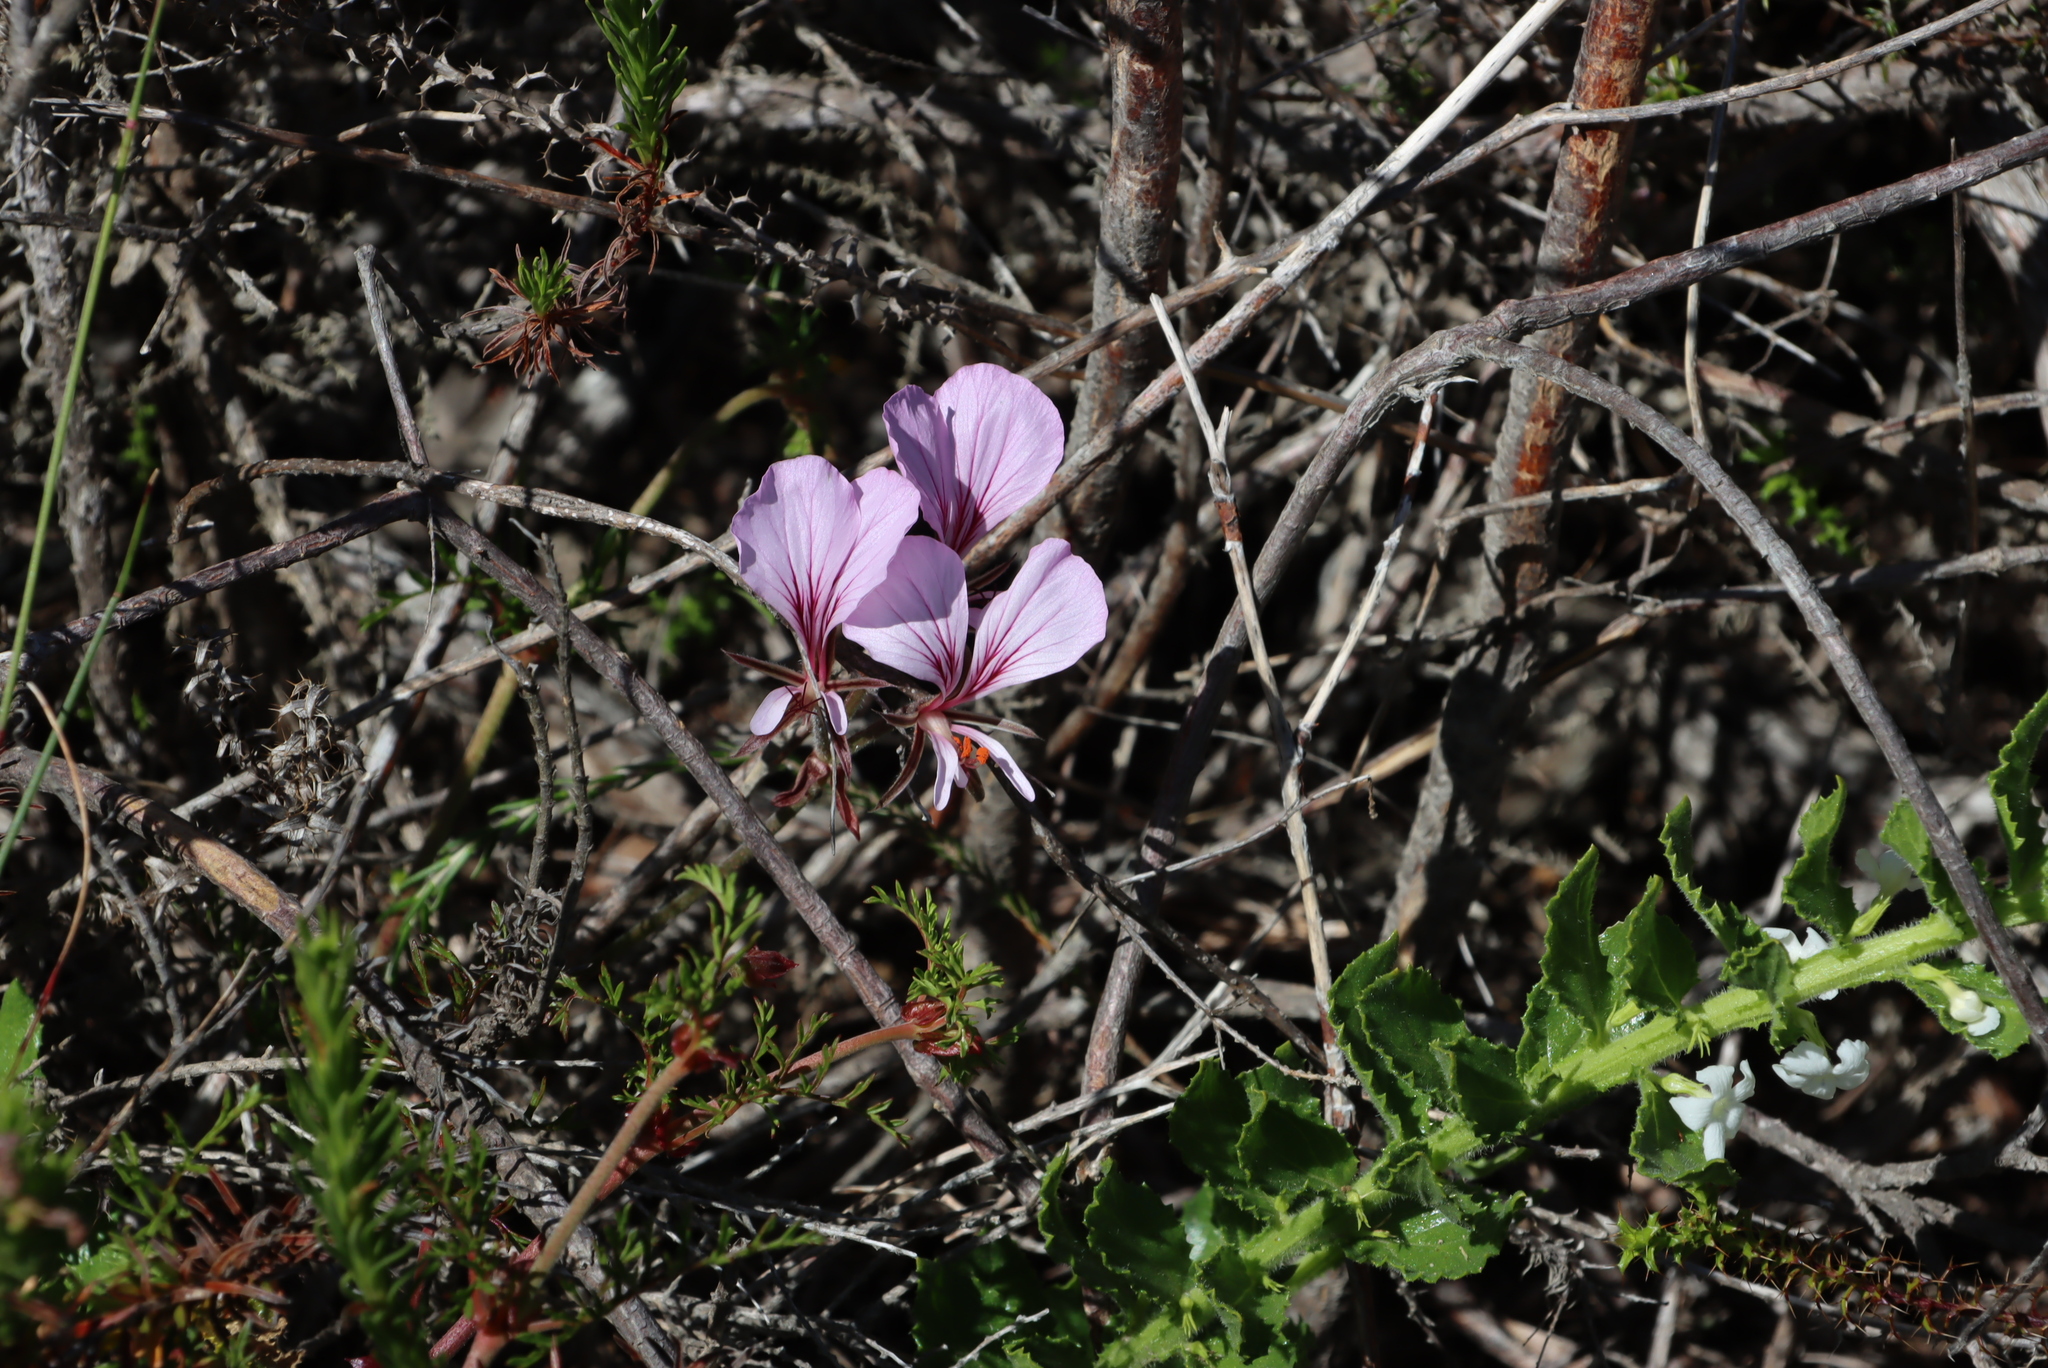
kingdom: Plantae
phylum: Tracheophyta
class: Magnoliopsida
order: Geraniales
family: Geraniaceae
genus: Pelargonium
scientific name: Pelargonium myrrhifolium
